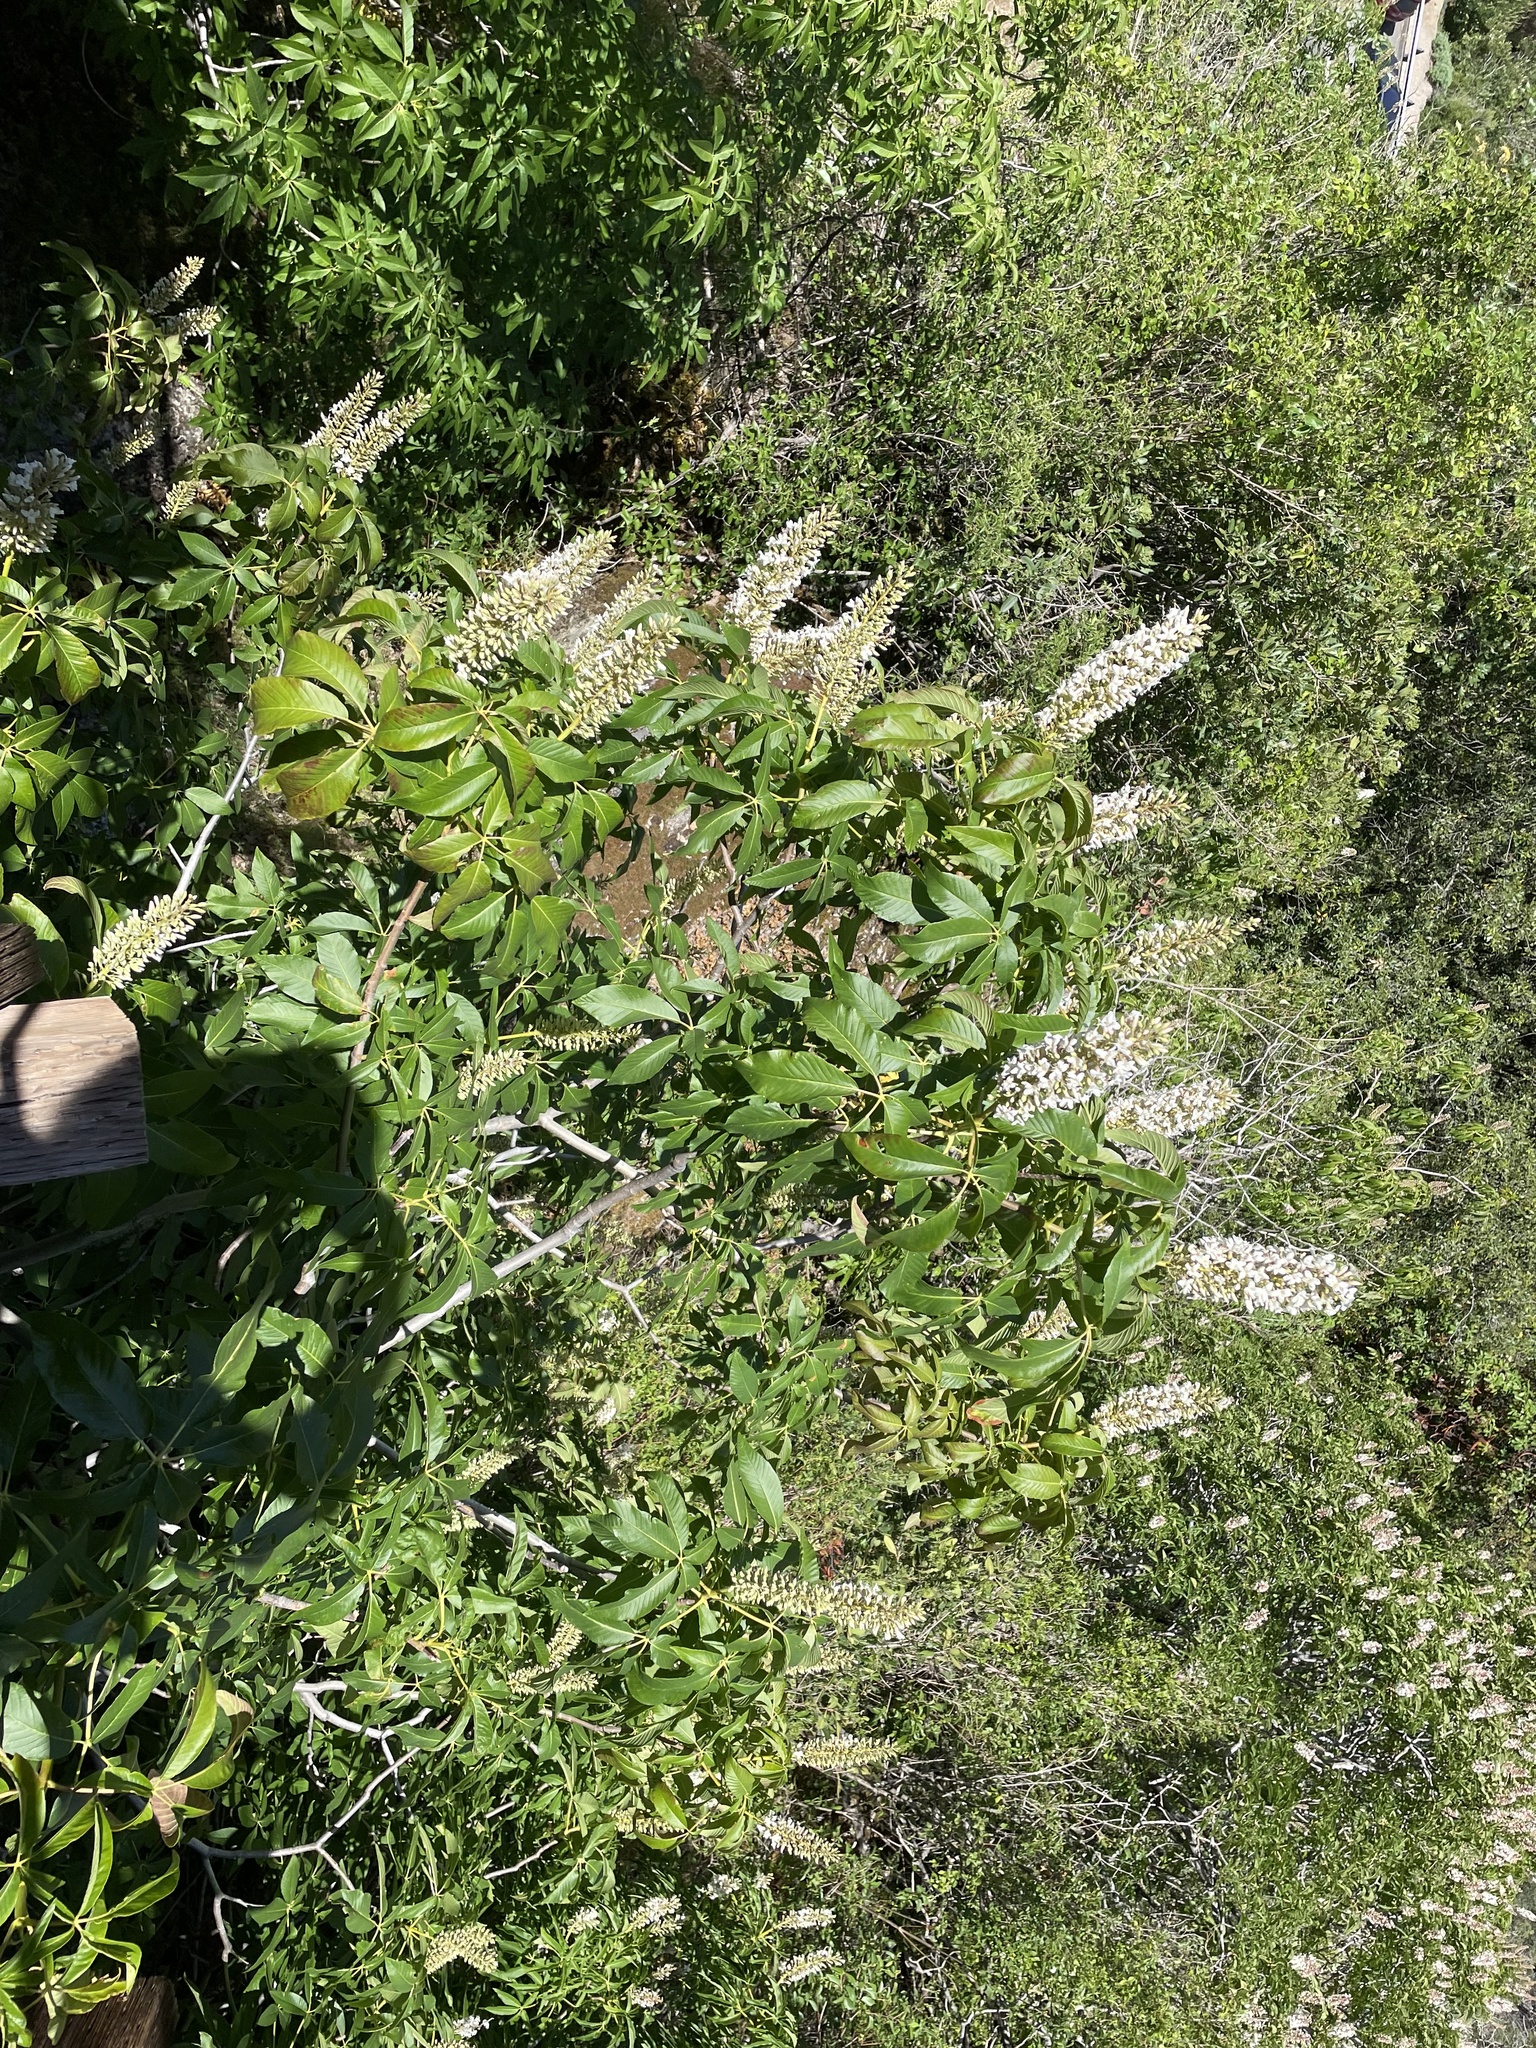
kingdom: Plantae
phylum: Tracheophyta
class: Magnoliopsida
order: Sapindales
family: Sapindaceae
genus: Aesculus
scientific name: Aesculus californica
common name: California buckeye
